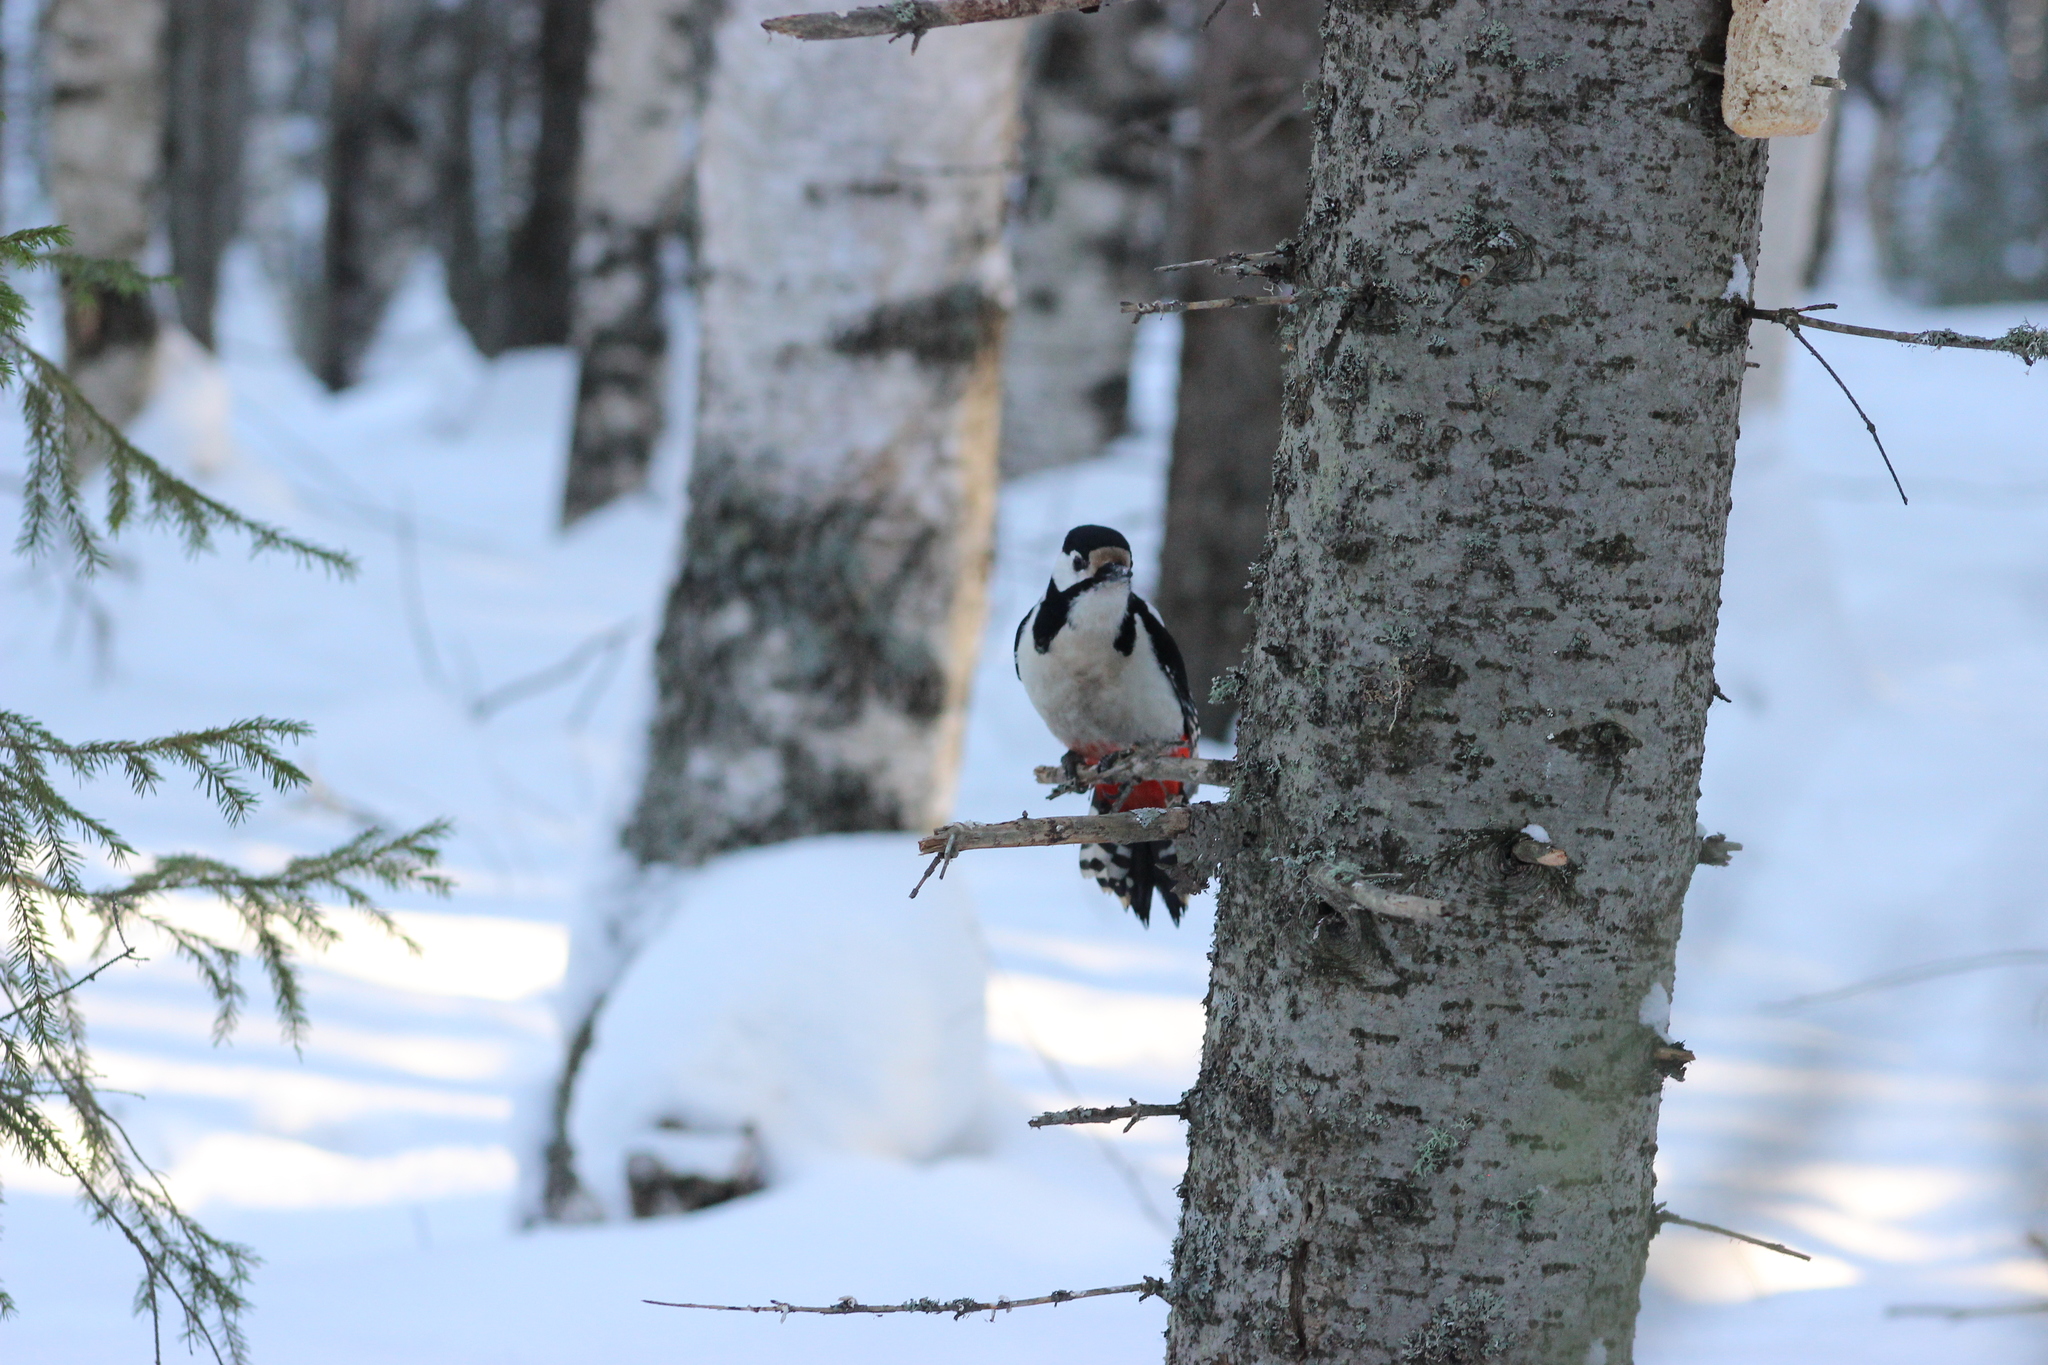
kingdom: Animalia
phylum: Chordata
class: Aves
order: Piciformes
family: Picidae
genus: Dendrocopos
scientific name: Dendrocopos major
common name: Great spotted woodpecker
